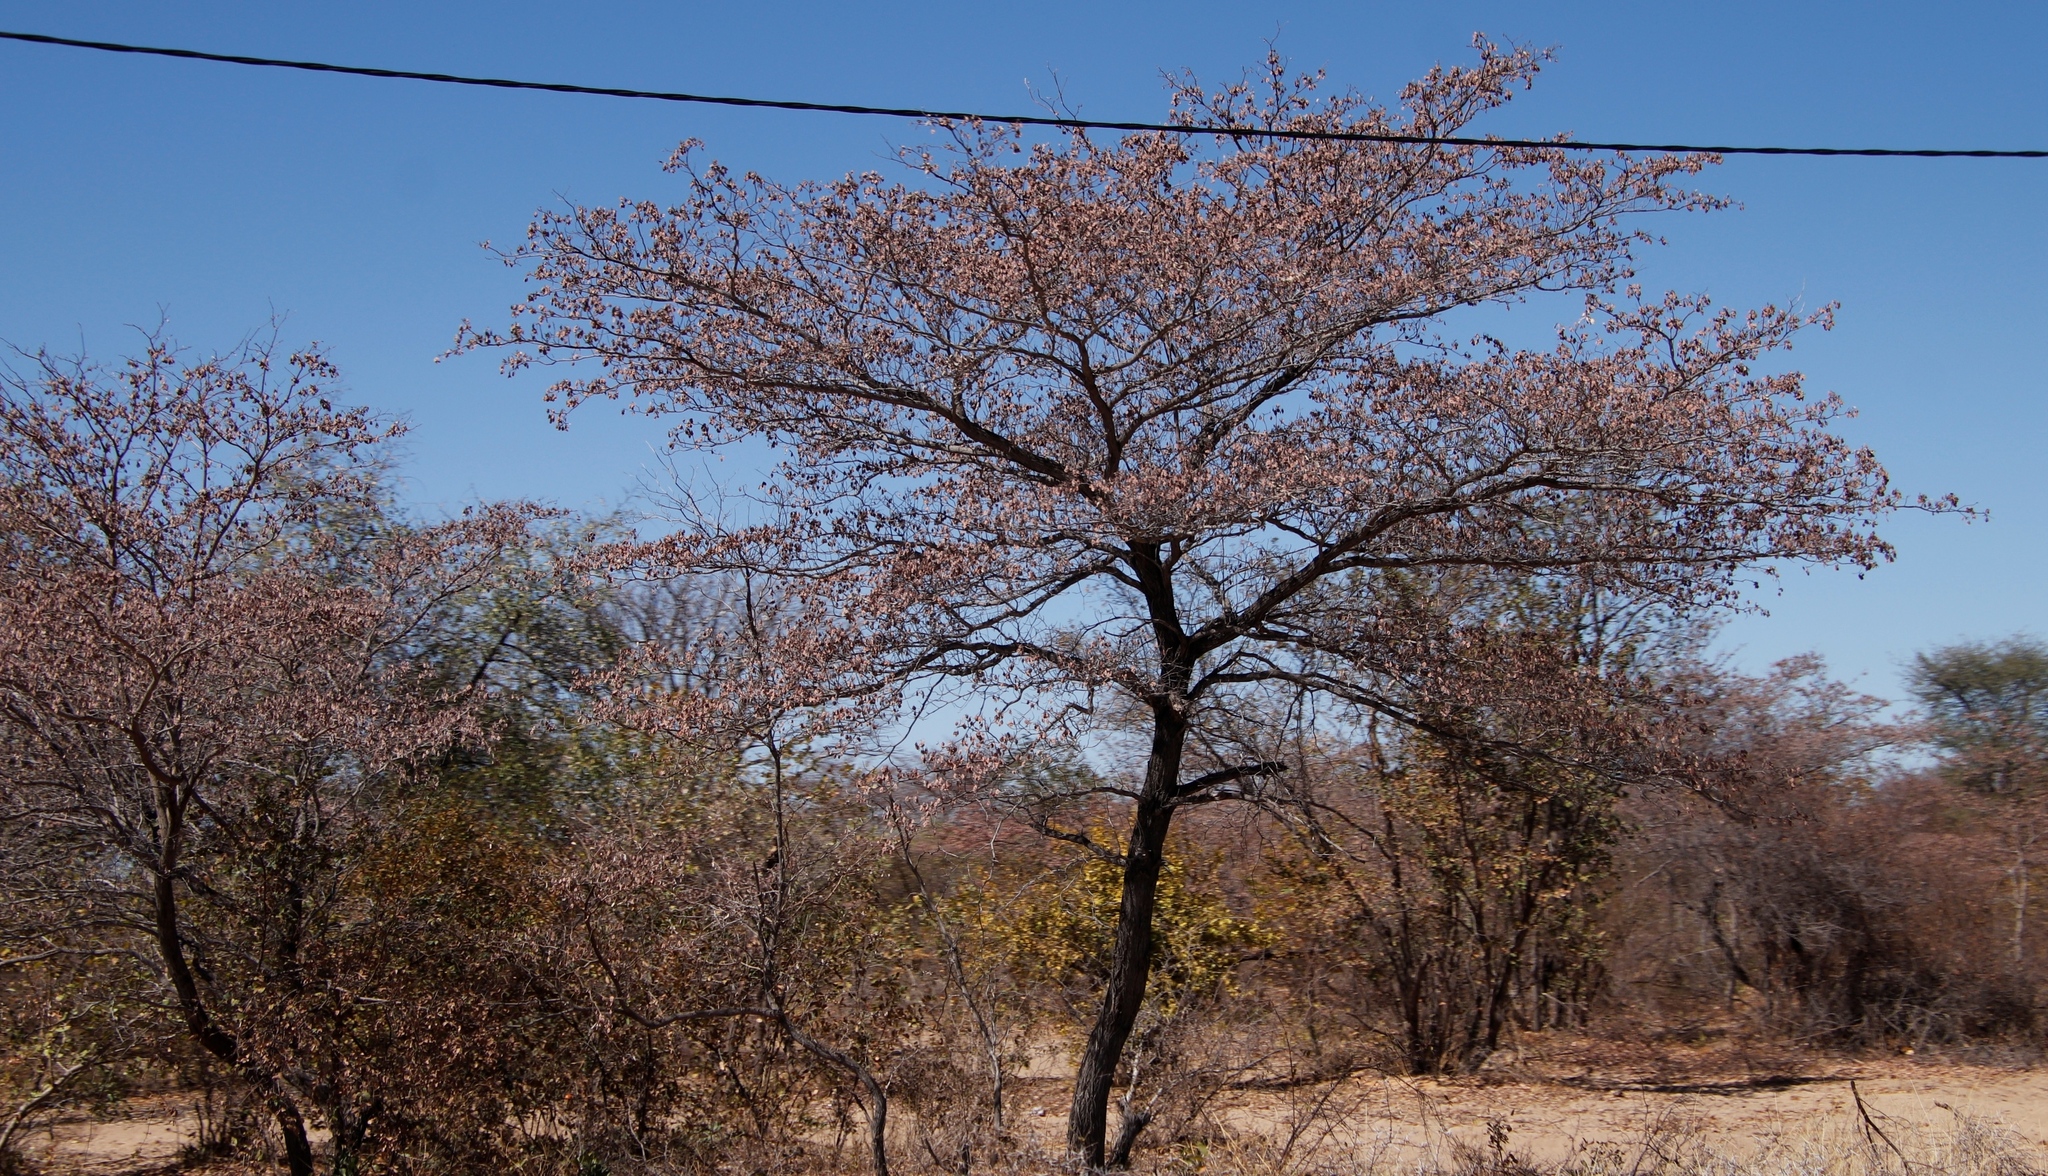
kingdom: Plantae
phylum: Tracheophyta
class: Magnoliopsida
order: Myrtales
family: Combretaceae
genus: Terminalia
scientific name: Terminalia sericea
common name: Clusterleaf
